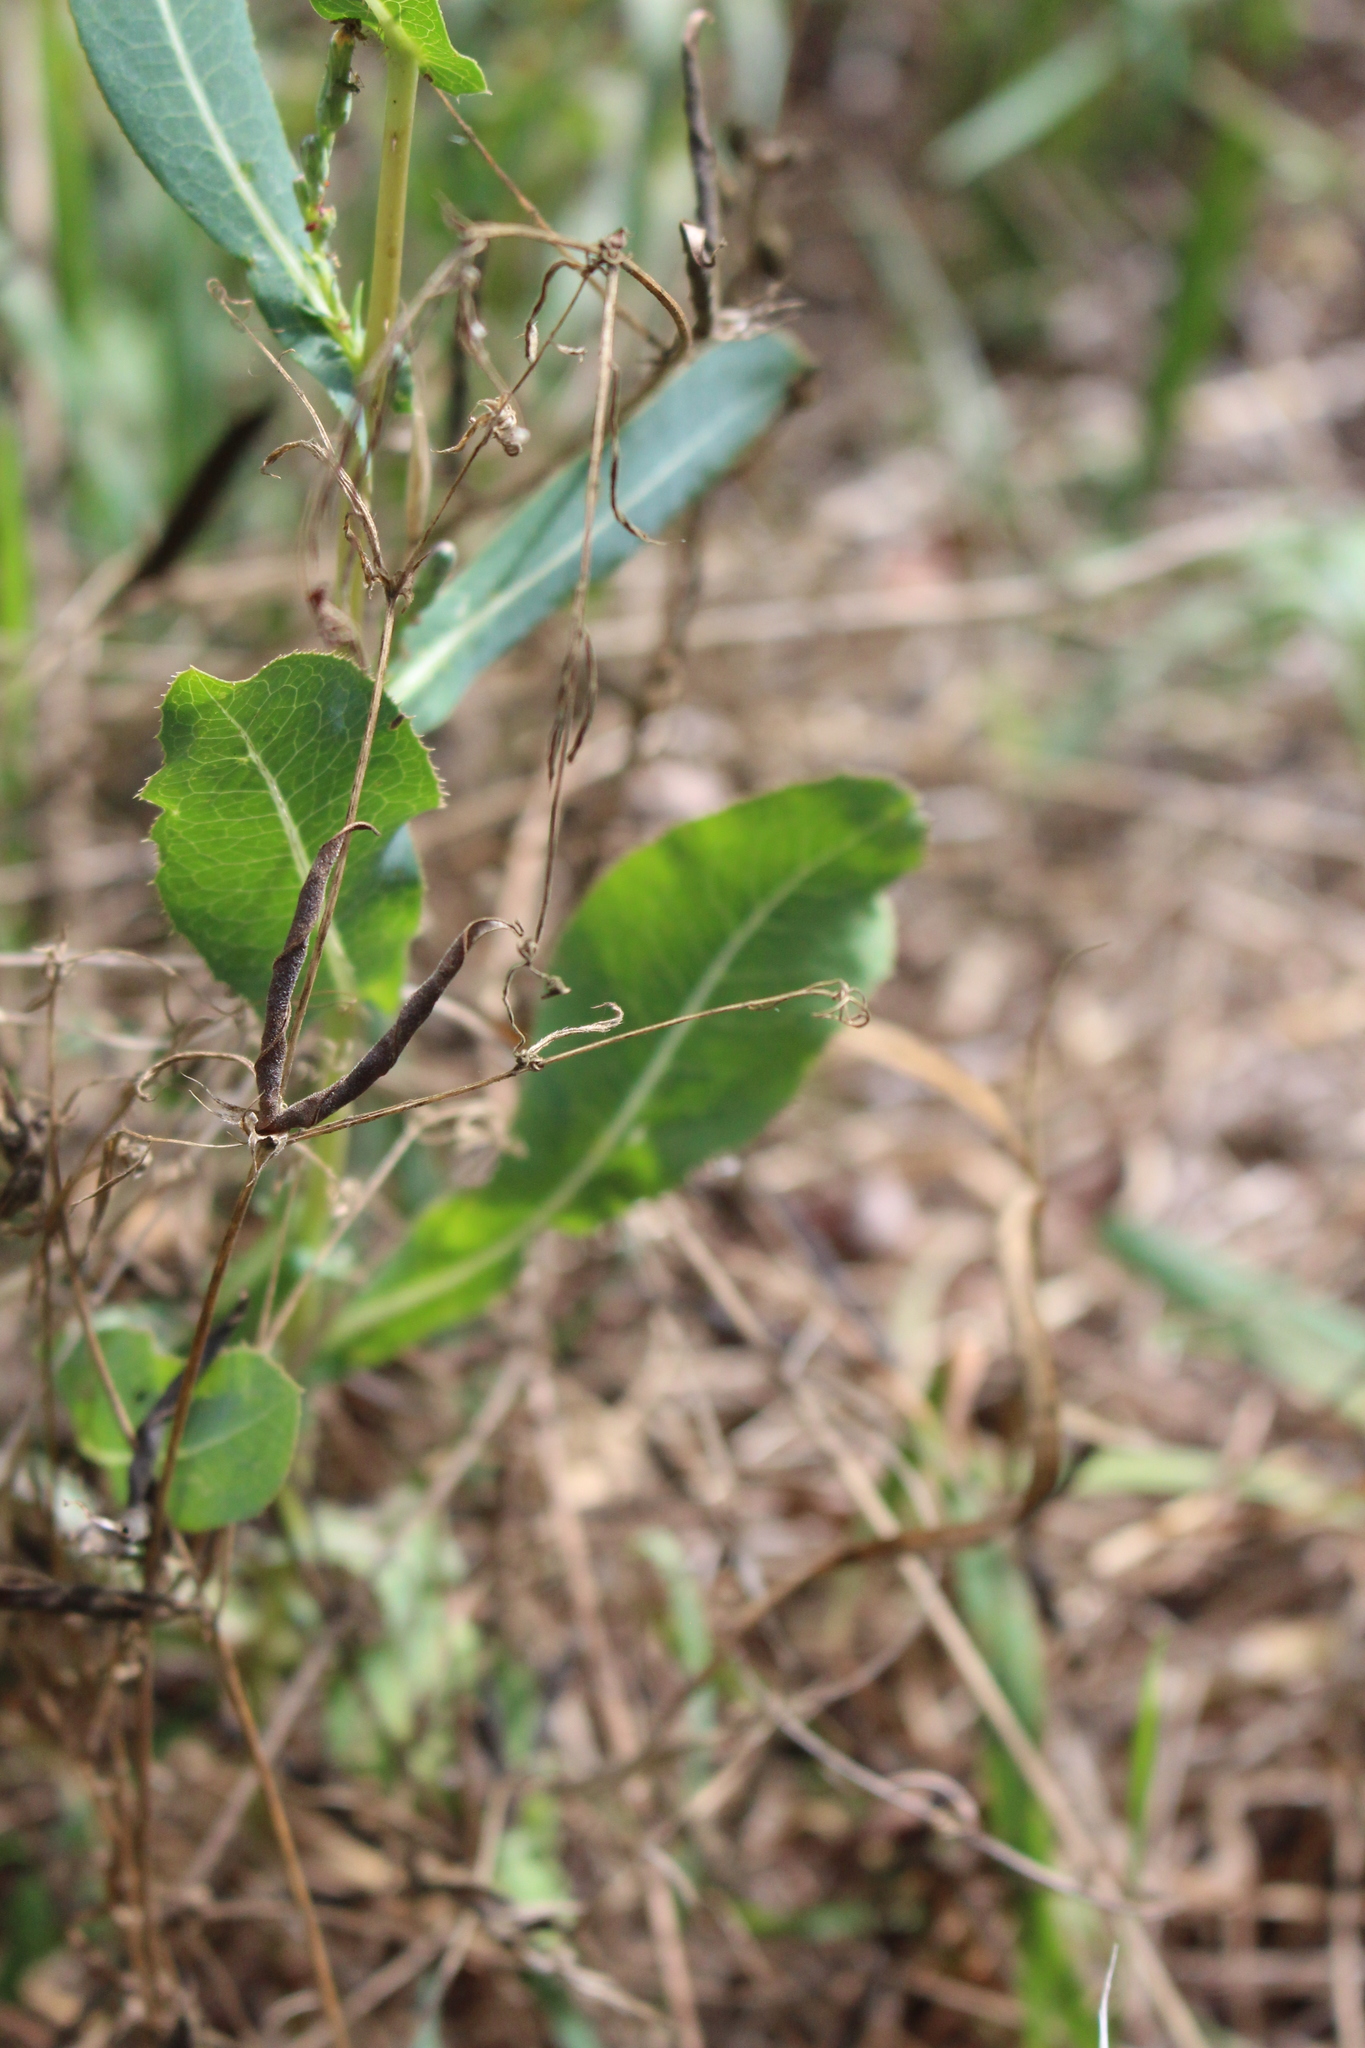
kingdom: Plantae
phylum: Tracheophyta
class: Magnoliopsida
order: Asterales
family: Asteraceae
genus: Lactuca
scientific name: Lactuca serriola
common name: Prickly lettuce
